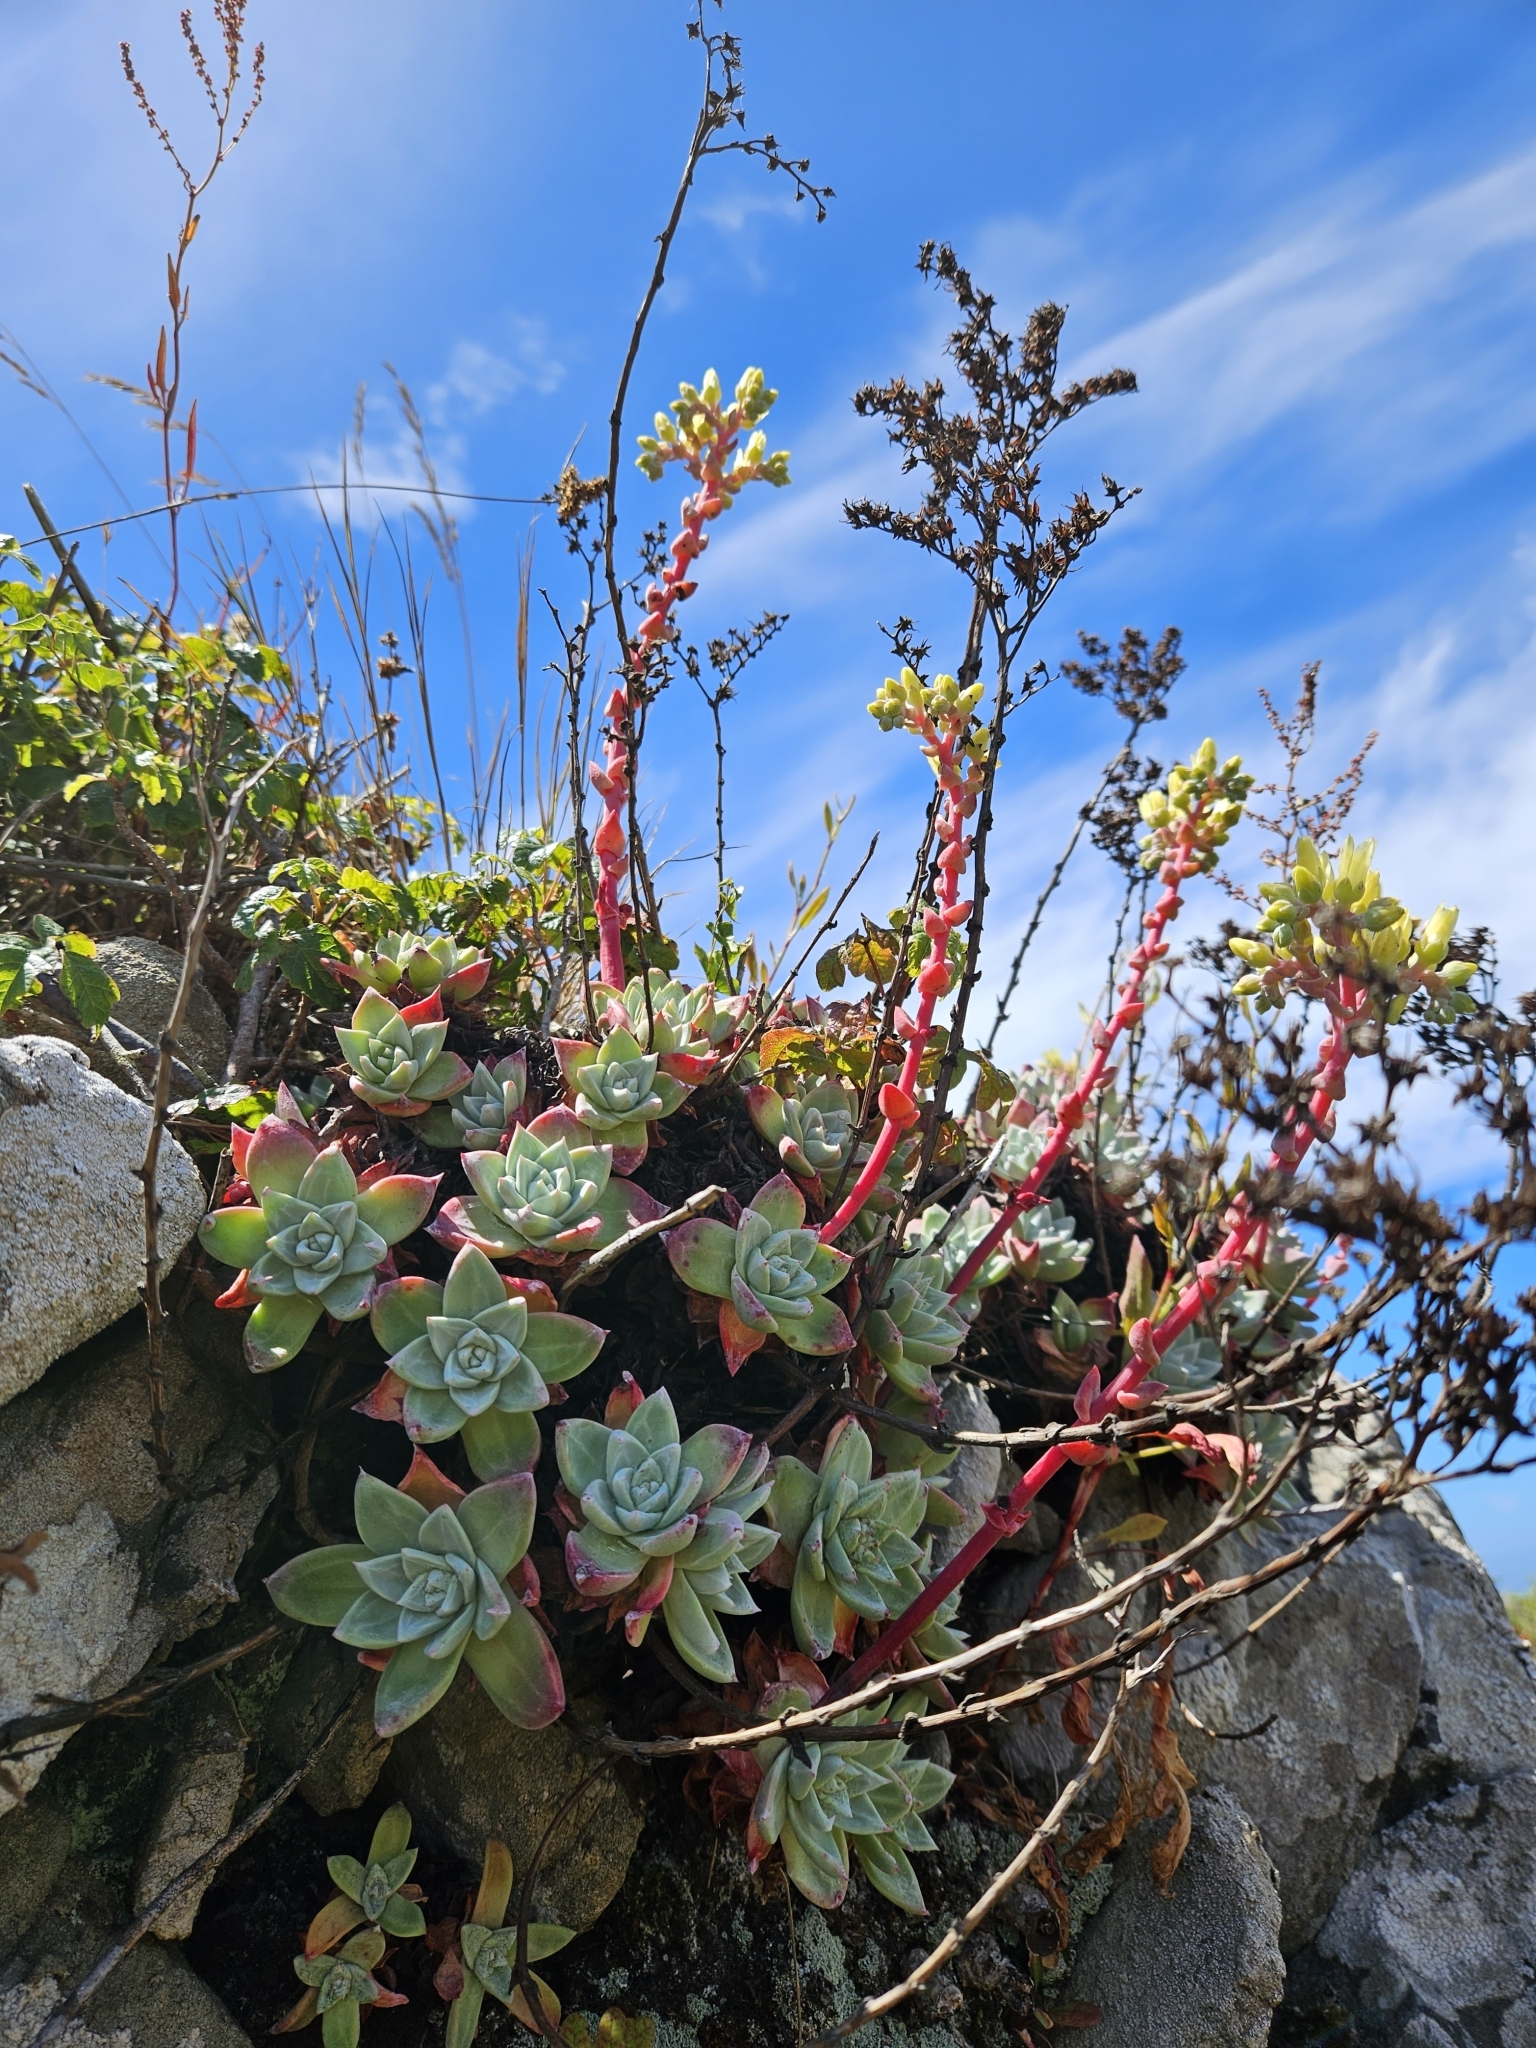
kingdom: Plantae
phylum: Tracheophyta
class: Magnoliopsida
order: Saxifragales
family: Crassulaceae
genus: Dudleya
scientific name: Dudleya farinosa
